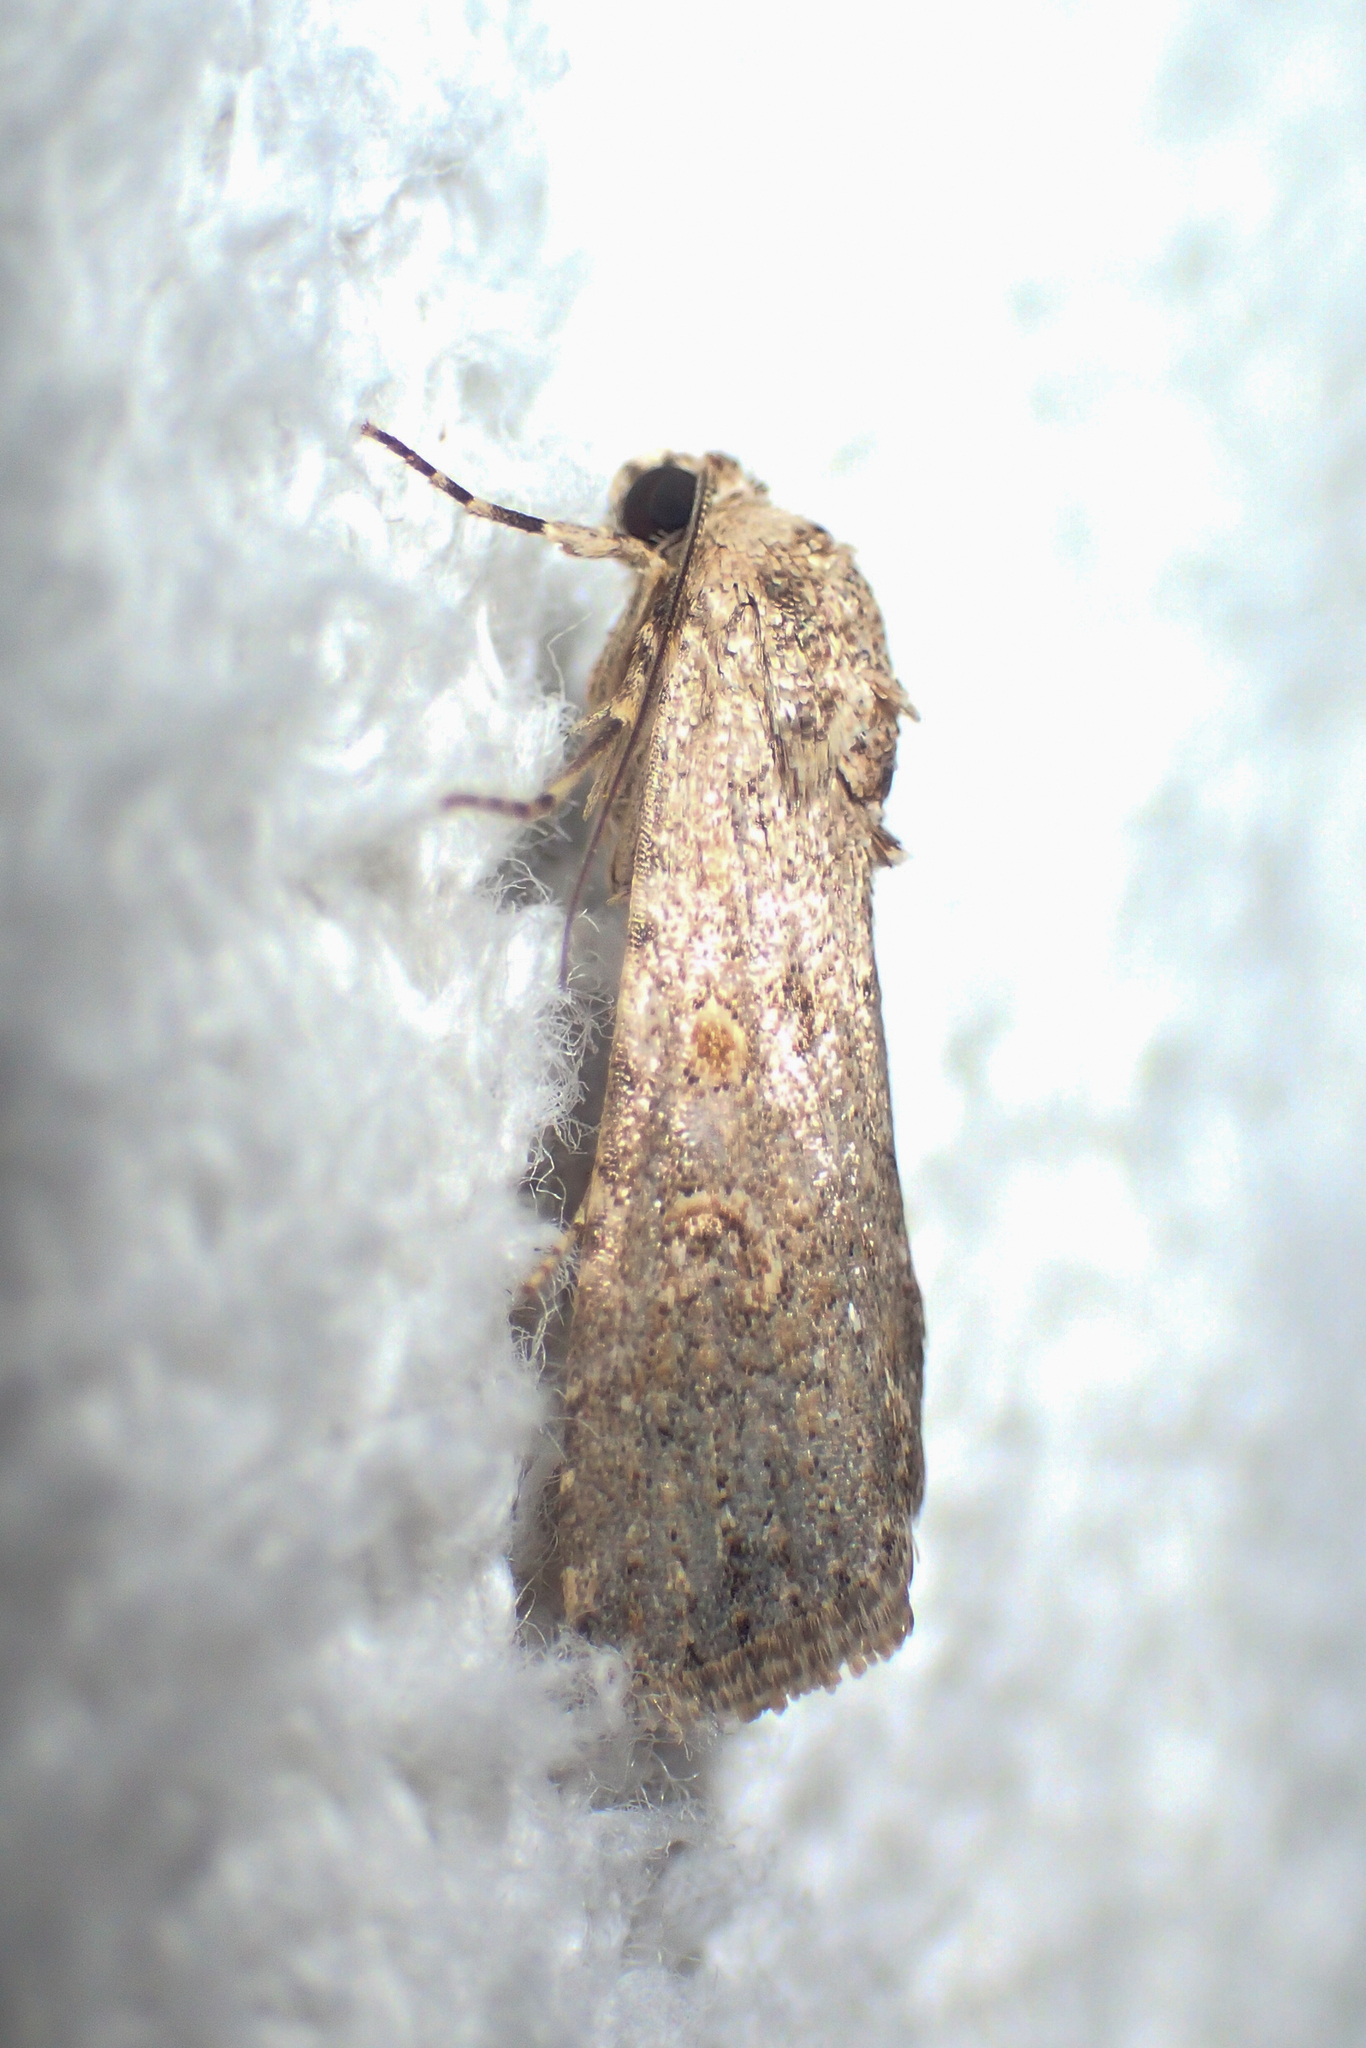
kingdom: Animalia
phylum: Arthropoda
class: Insecta
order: Lepidoptera
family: Noctuidae
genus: Spodoptera
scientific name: Spodoptera exigua
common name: Beet armyworm
